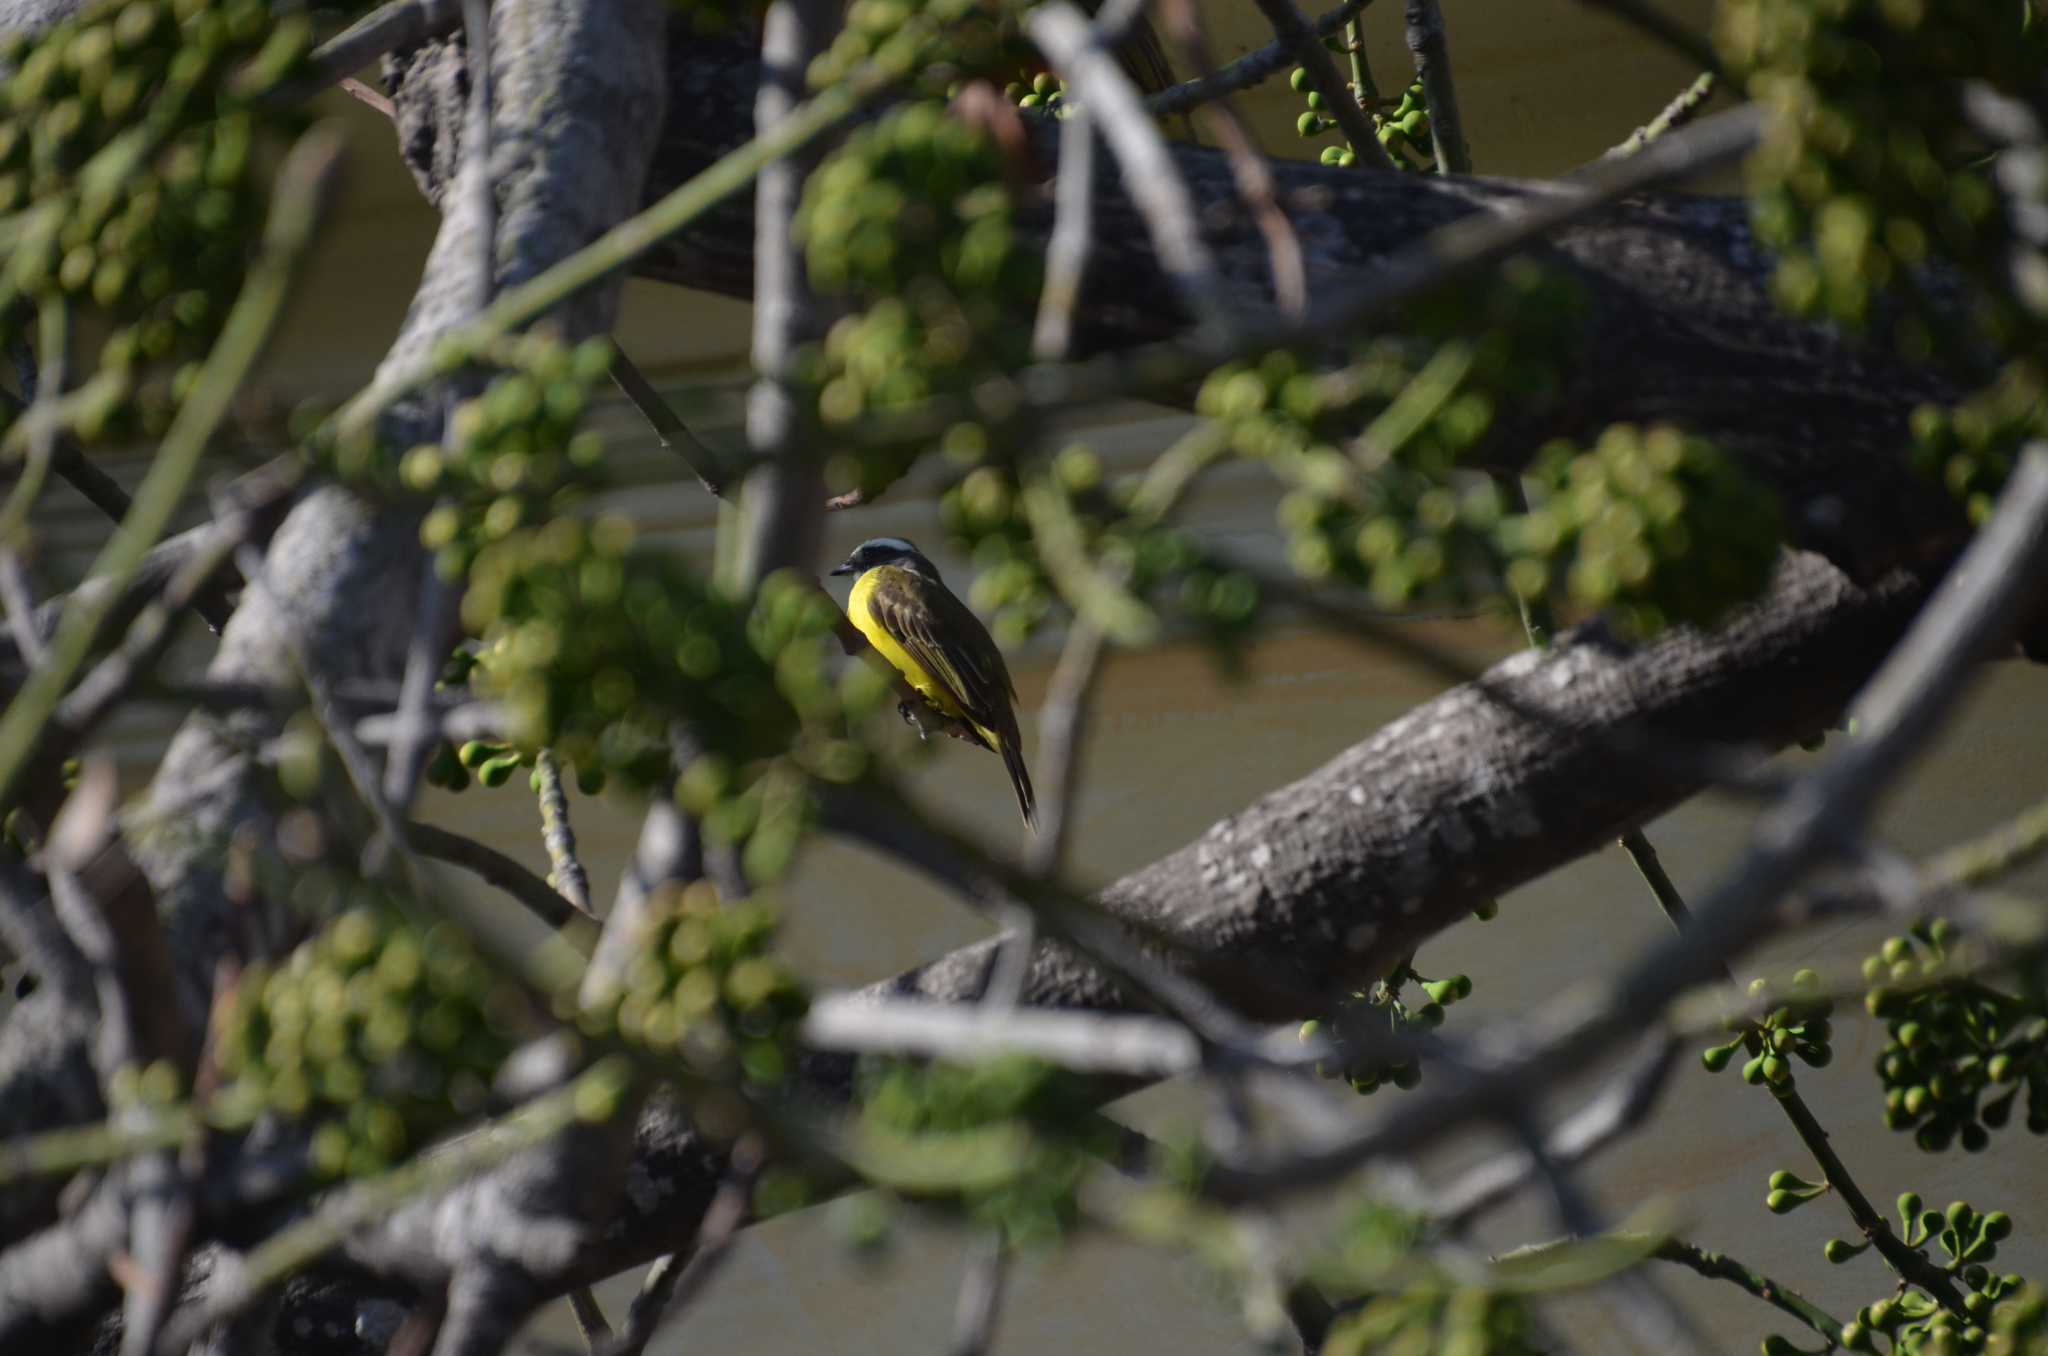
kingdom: Animalia
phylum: Chordata
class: Aves
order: Passeriformes
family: Tyrannidae
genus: Myiozetetes
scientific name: Myiozetetes similis
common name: Social flycatcher
